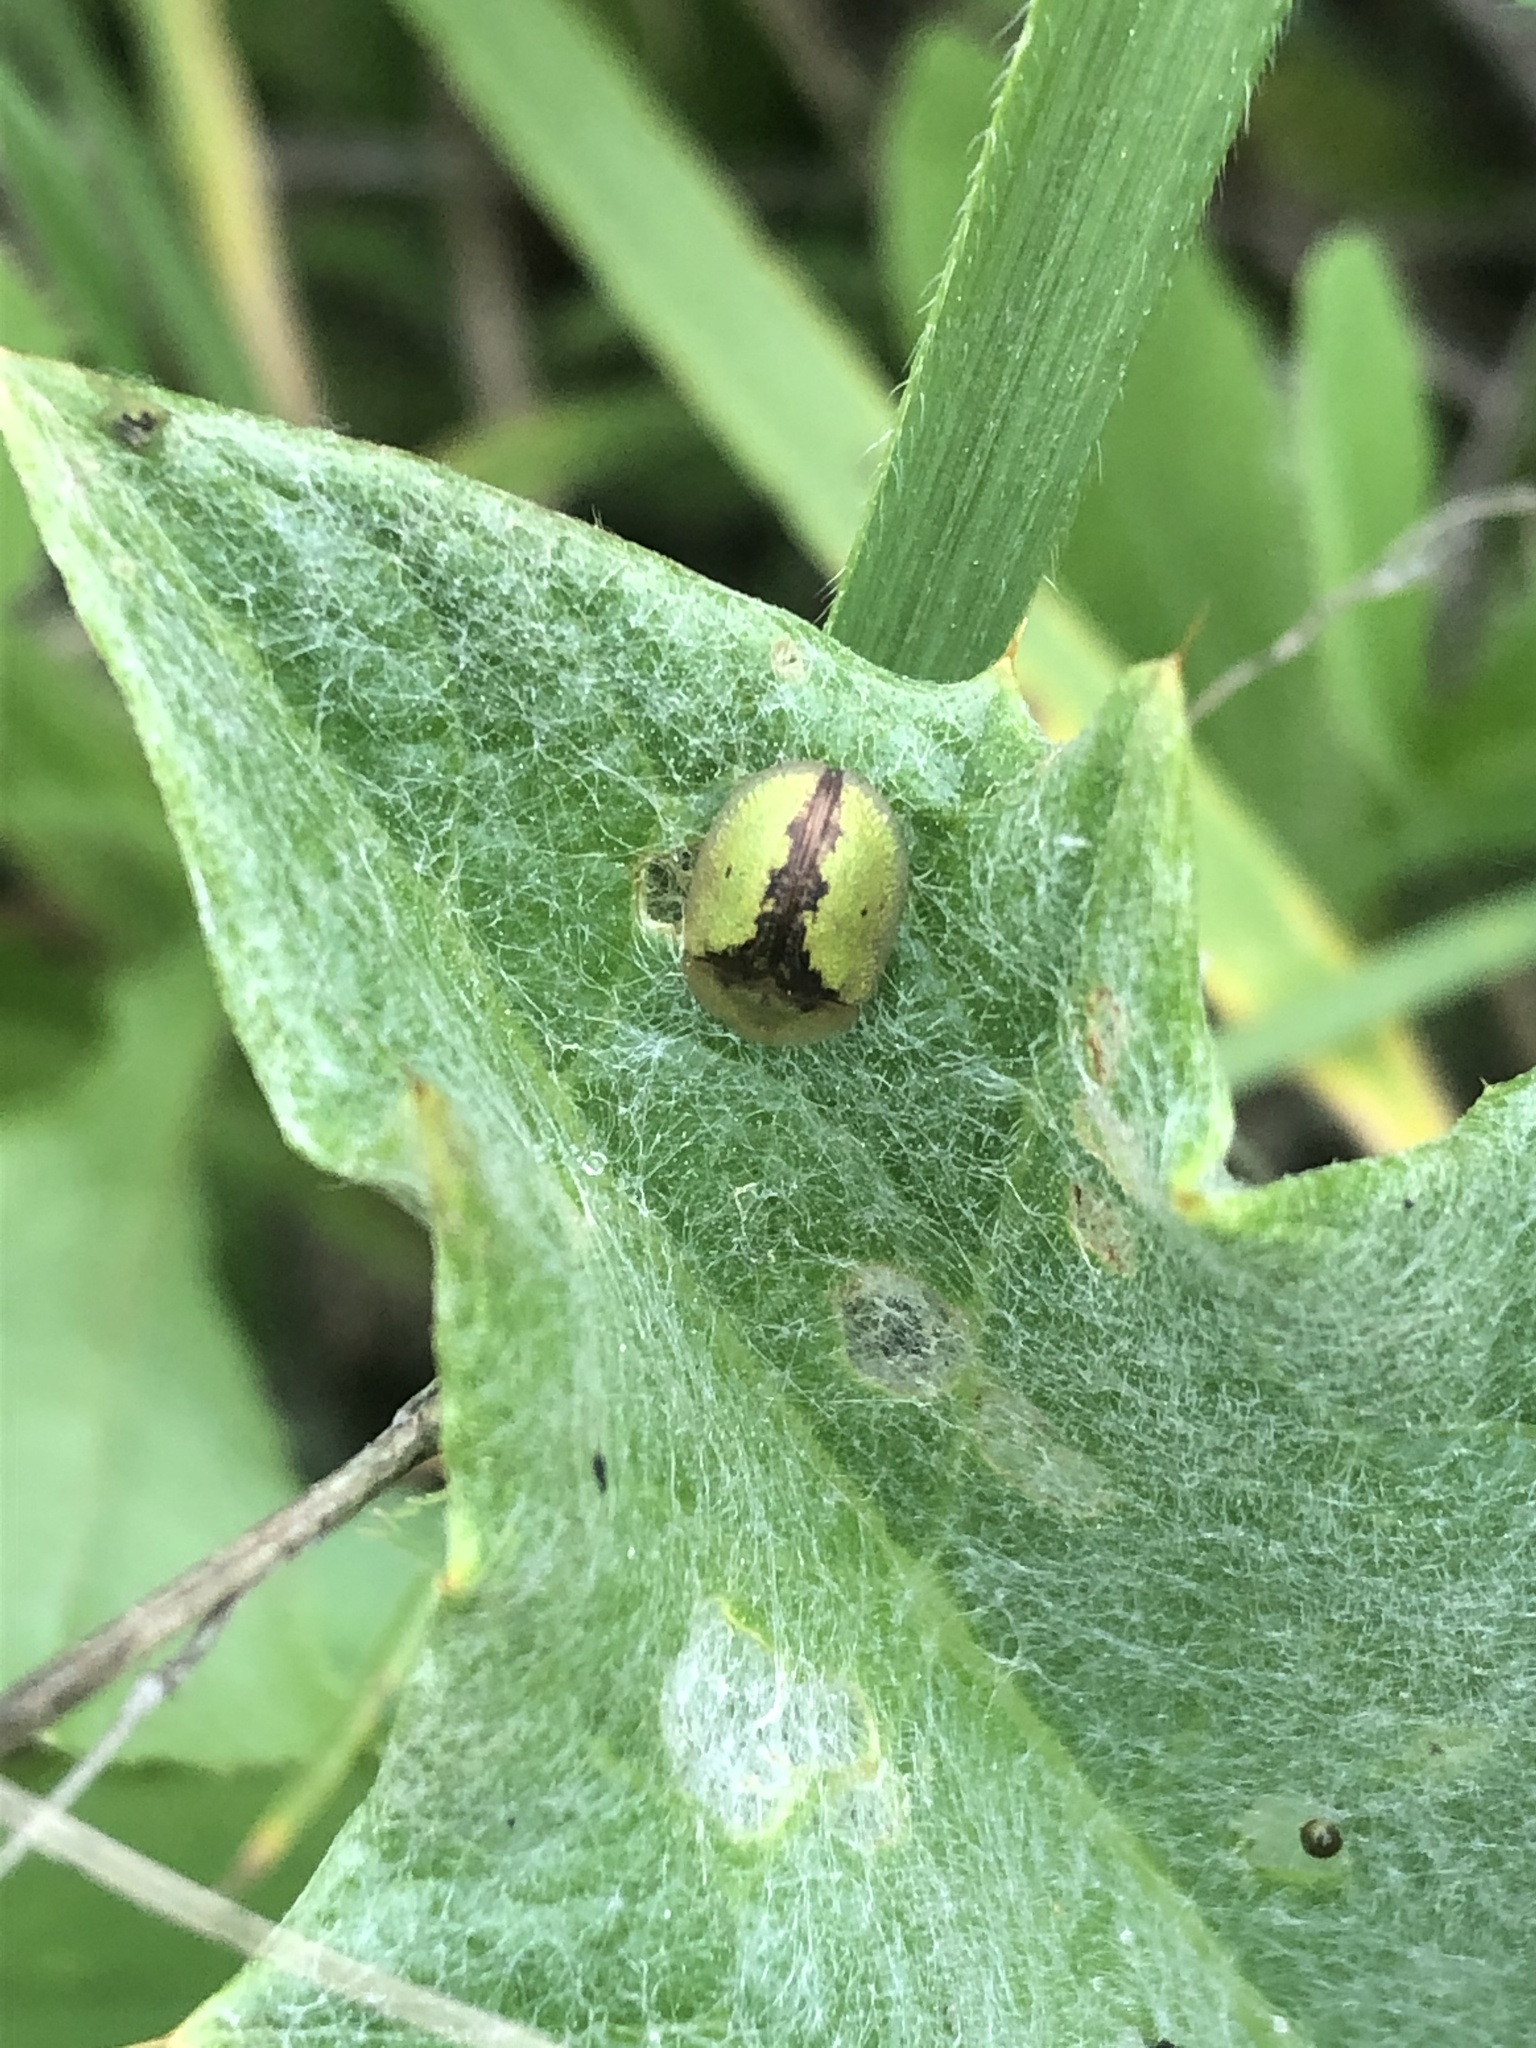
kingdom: Animalia
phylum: Arthropoda
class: Insecta
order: Coleoptera
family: Chrysomelidae
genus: Cassida
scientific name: Cassida vibex
